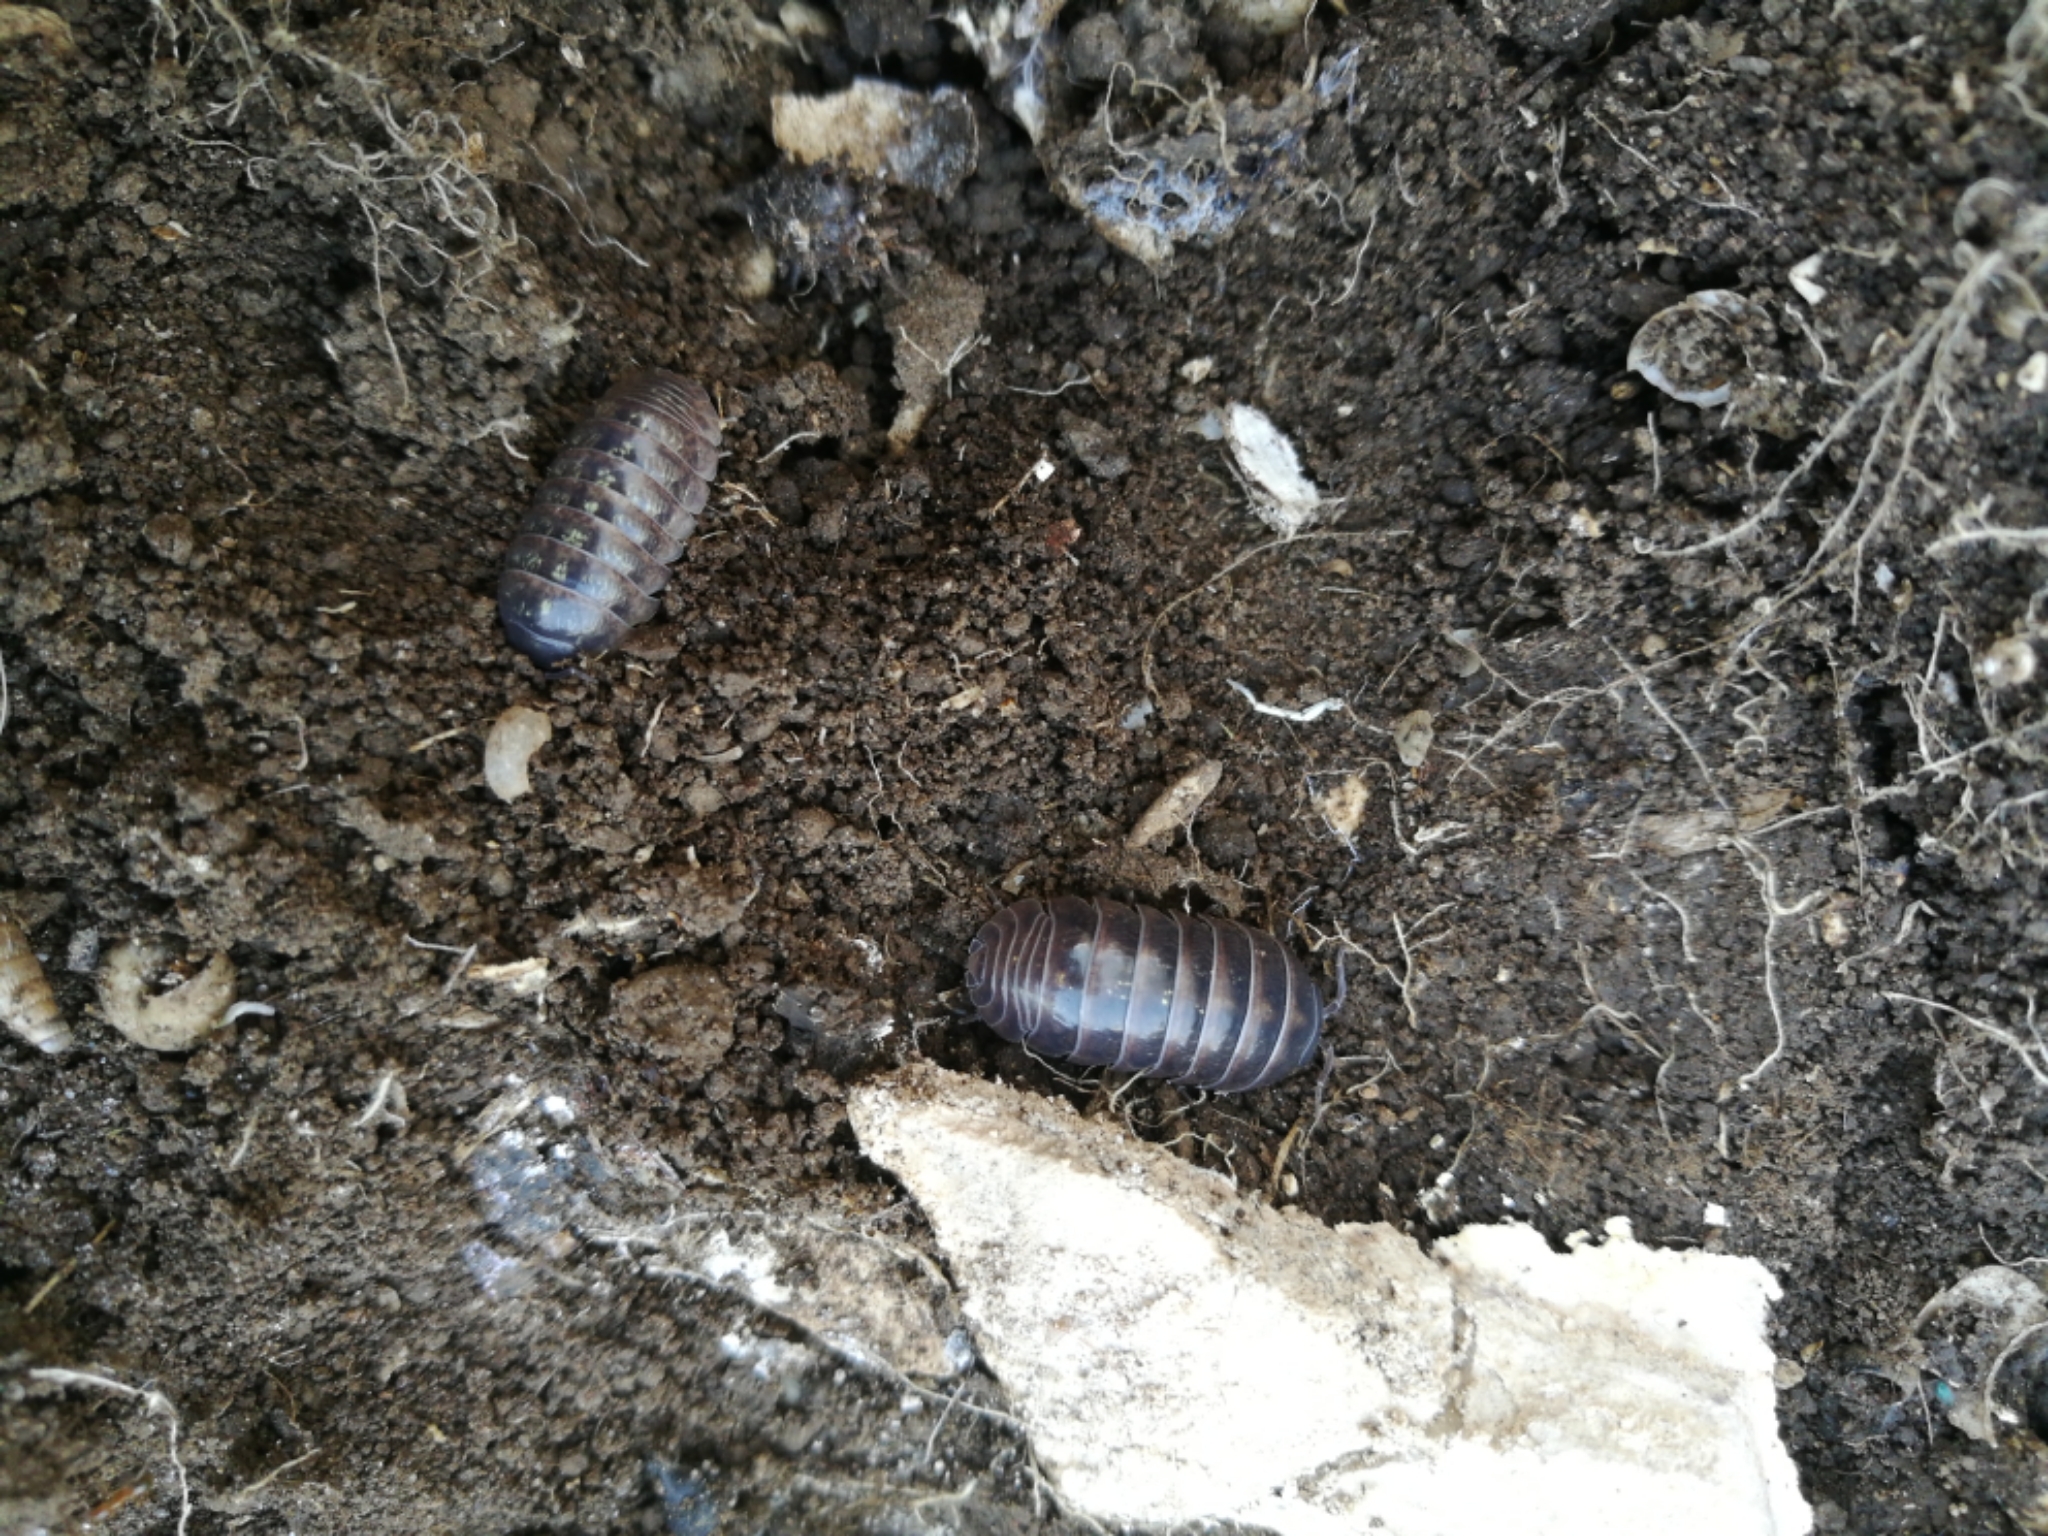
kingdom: Animalia
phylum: Arthropoda
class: Malacostraca
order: Isopoda
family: Armadillidiidae
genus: Armadillidium
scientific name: Armadillidium vulgare
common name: Common pill woodlouse
